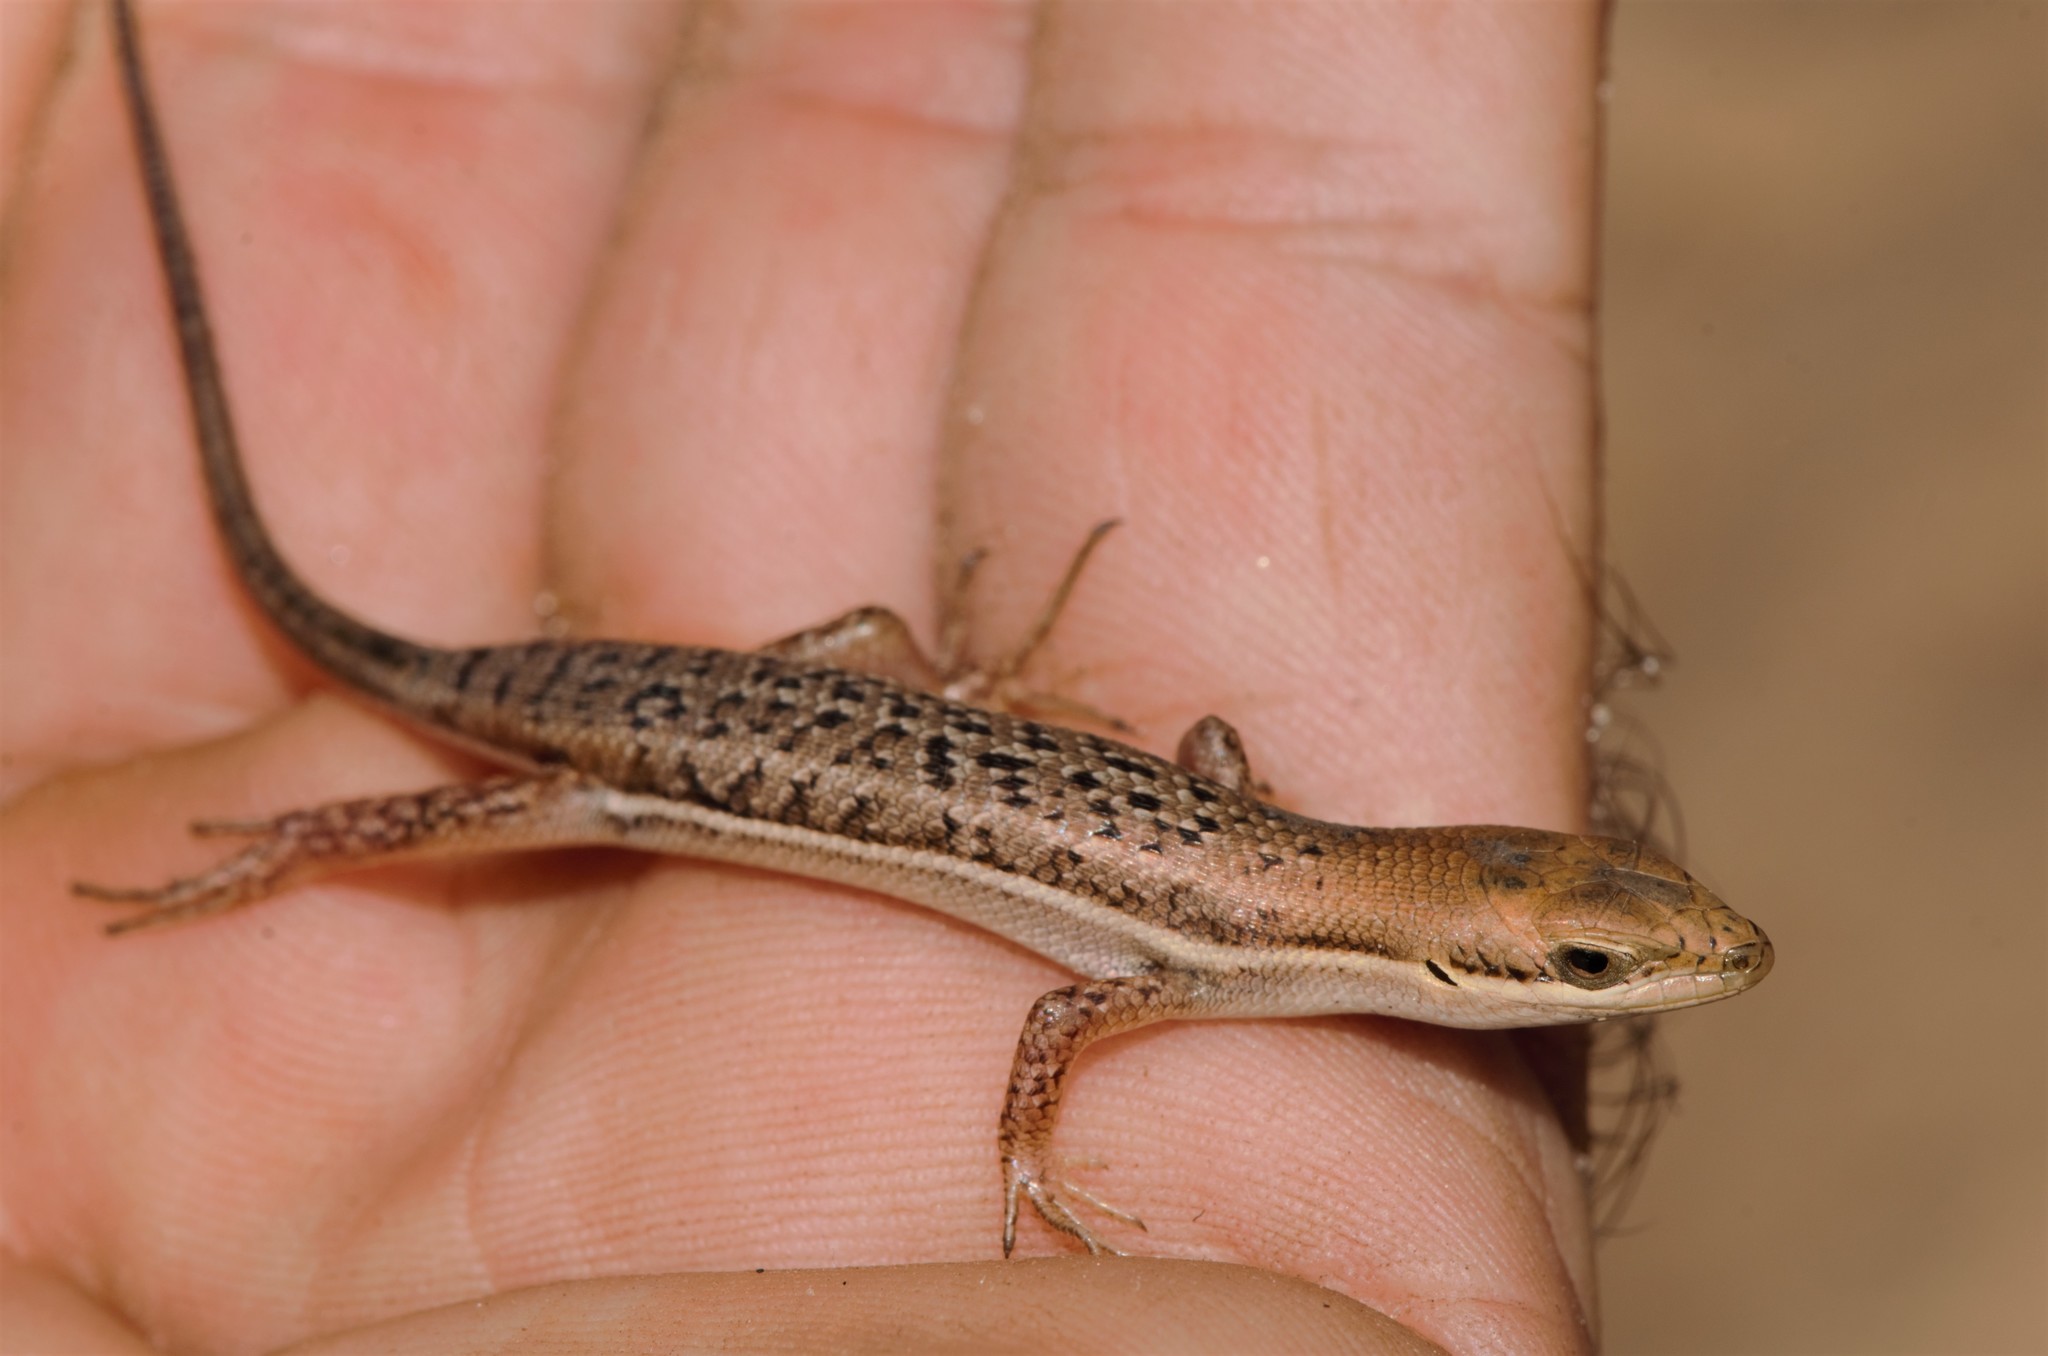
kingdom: Animalia
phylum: Chordata
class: Squamata
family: Scincidae
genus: Trachylepis
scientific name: Trachylepis varia
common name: Eastern variable skink
